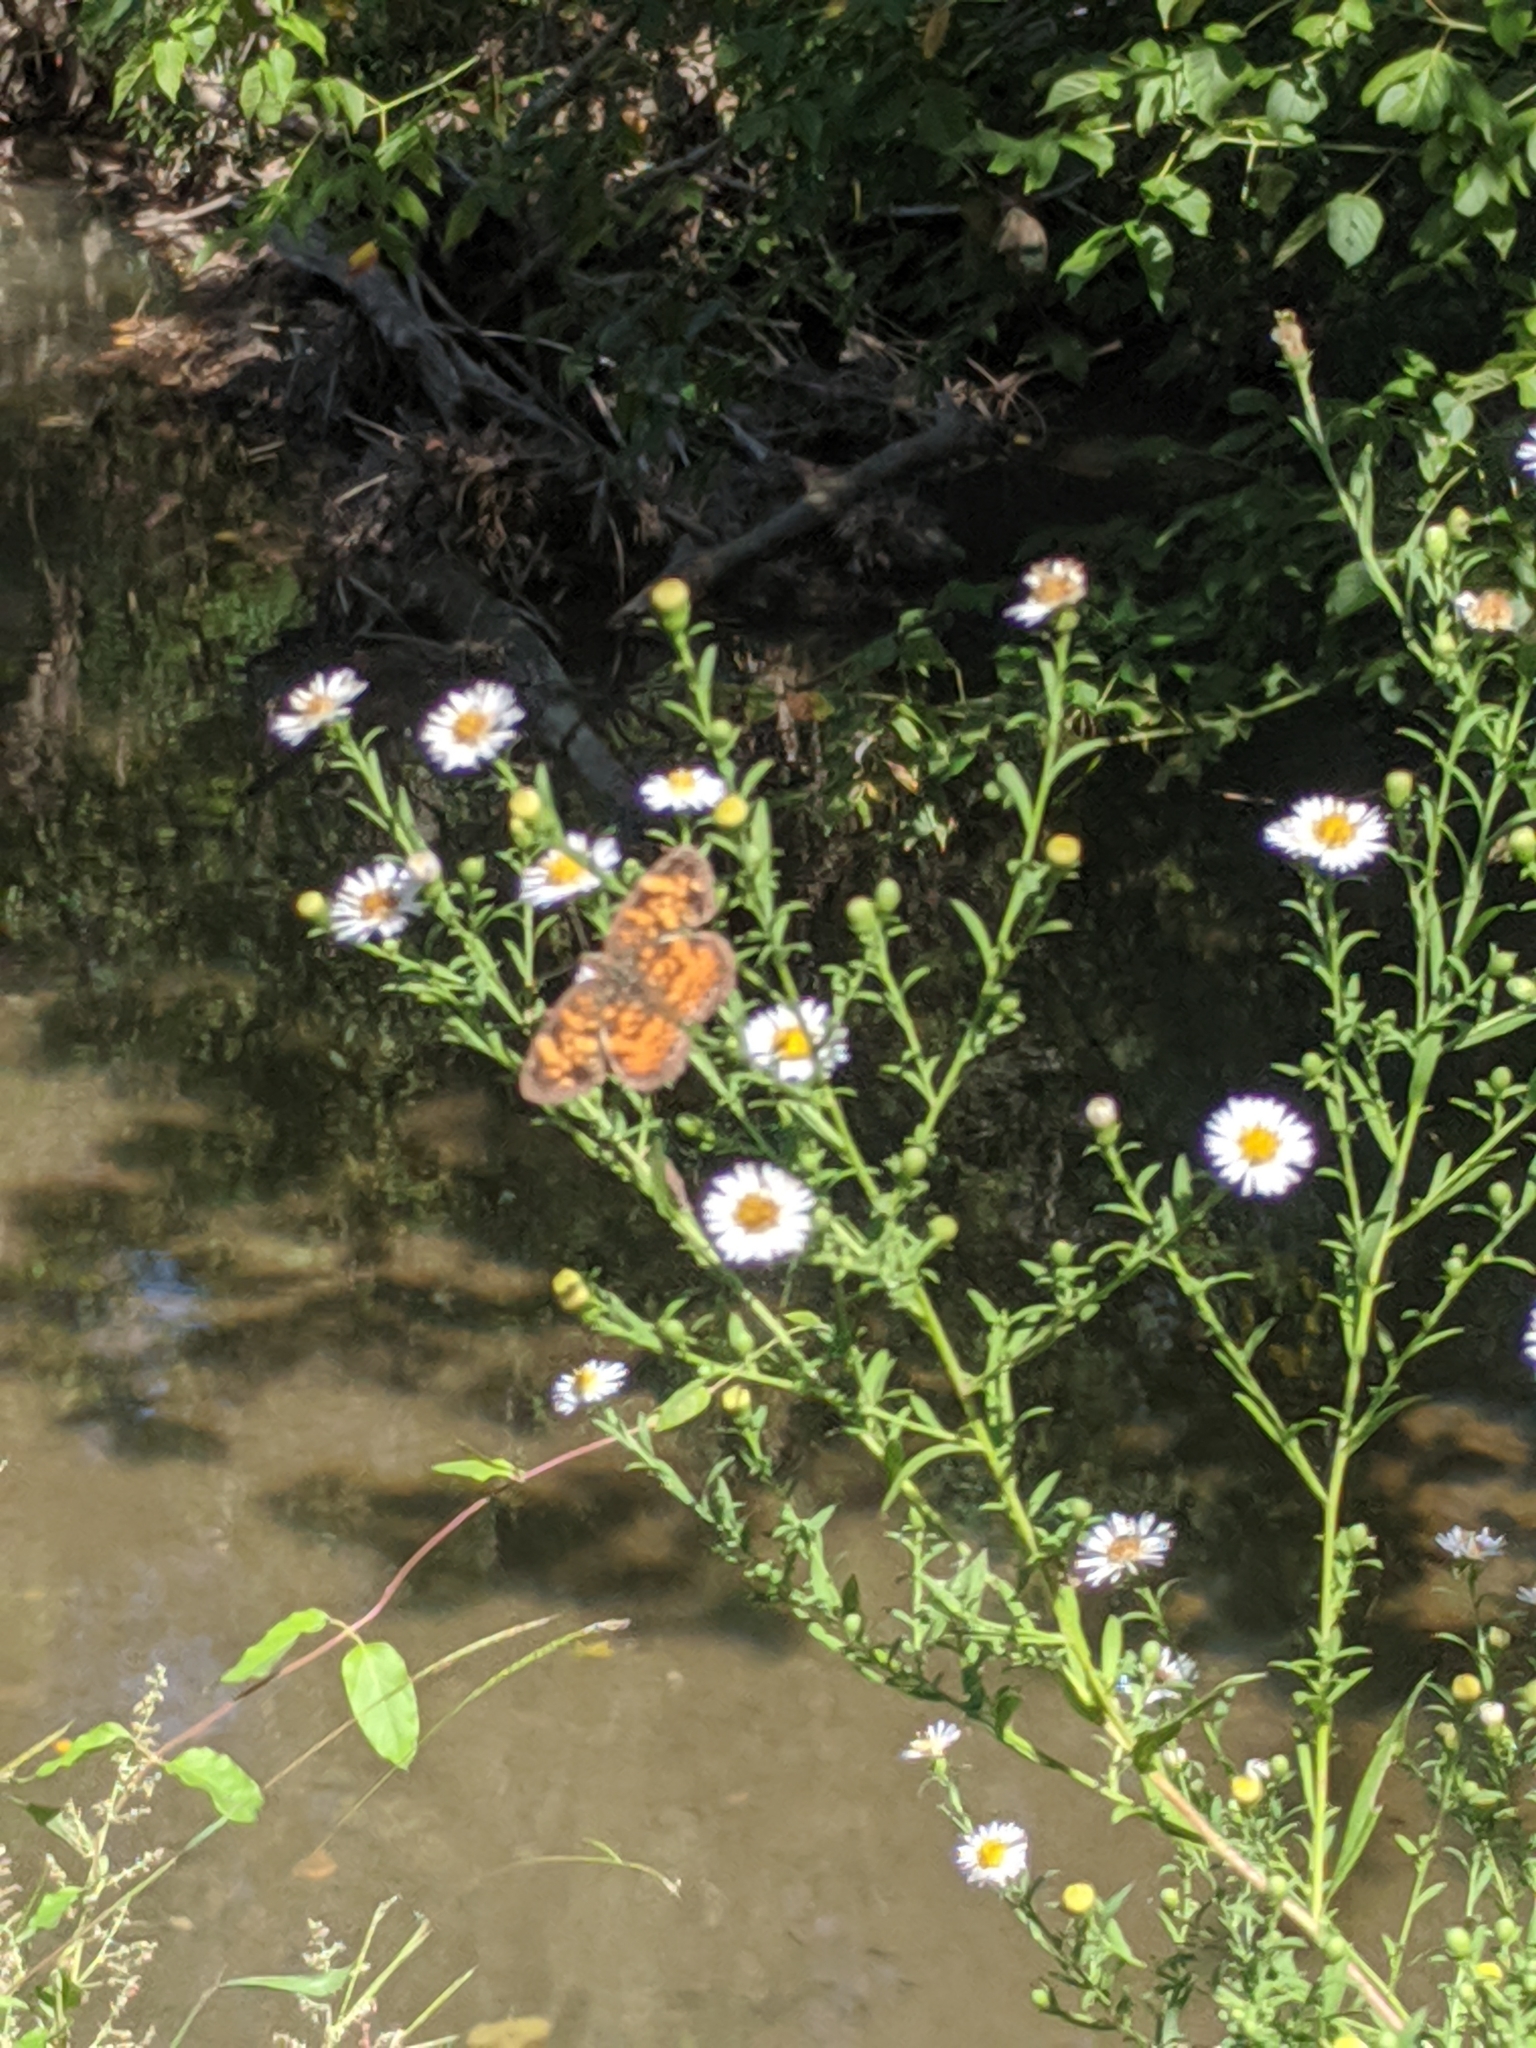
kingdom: Animalia
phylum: Arthropoda
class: Insecta
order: Lepidoptera
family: Nymphalidae
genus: Phyciodes
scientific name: Phyciodes tharos
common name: Pearl crescent
